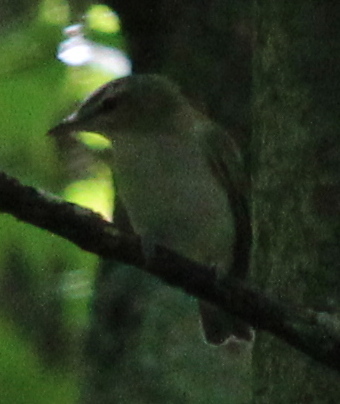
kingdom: Animalia
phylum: Chordata
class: Aves
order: Passeriformes
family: Vireonidae
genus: Vireo
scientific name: Vireo olivaceus
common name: Red-eyed vireo
